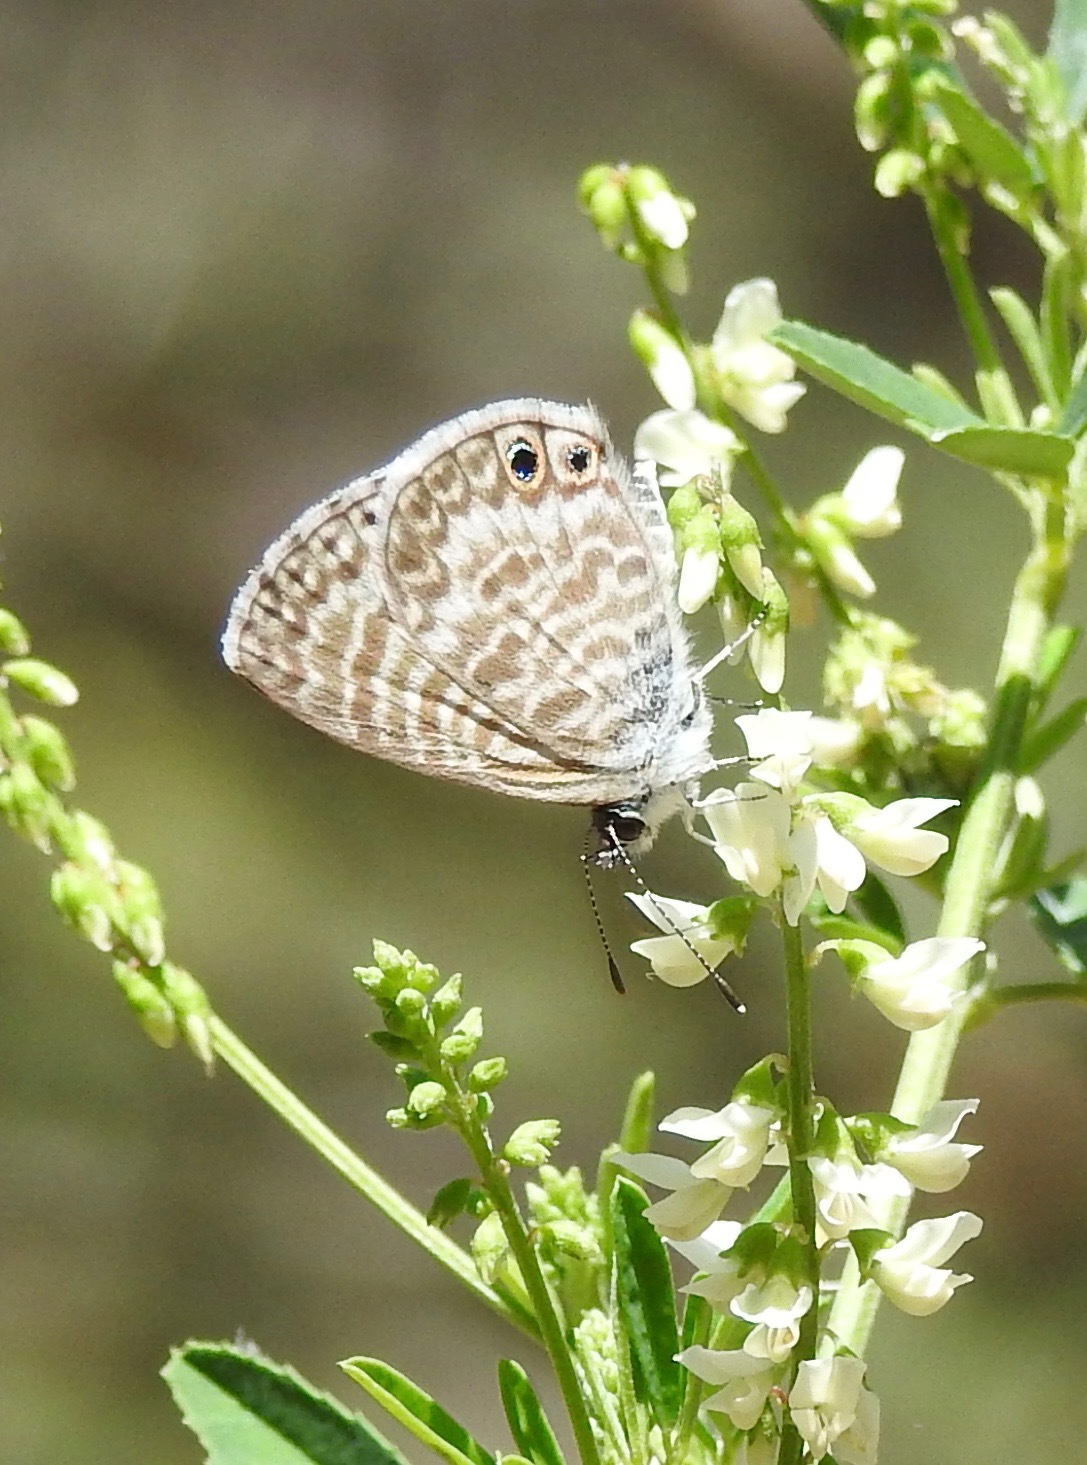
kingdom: Animalia
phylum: Arthropoda
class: Insecta
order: Lepidoptera
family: Lycaenidae
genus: Leptotes
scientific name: Leptotes marina
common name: Marine blue
